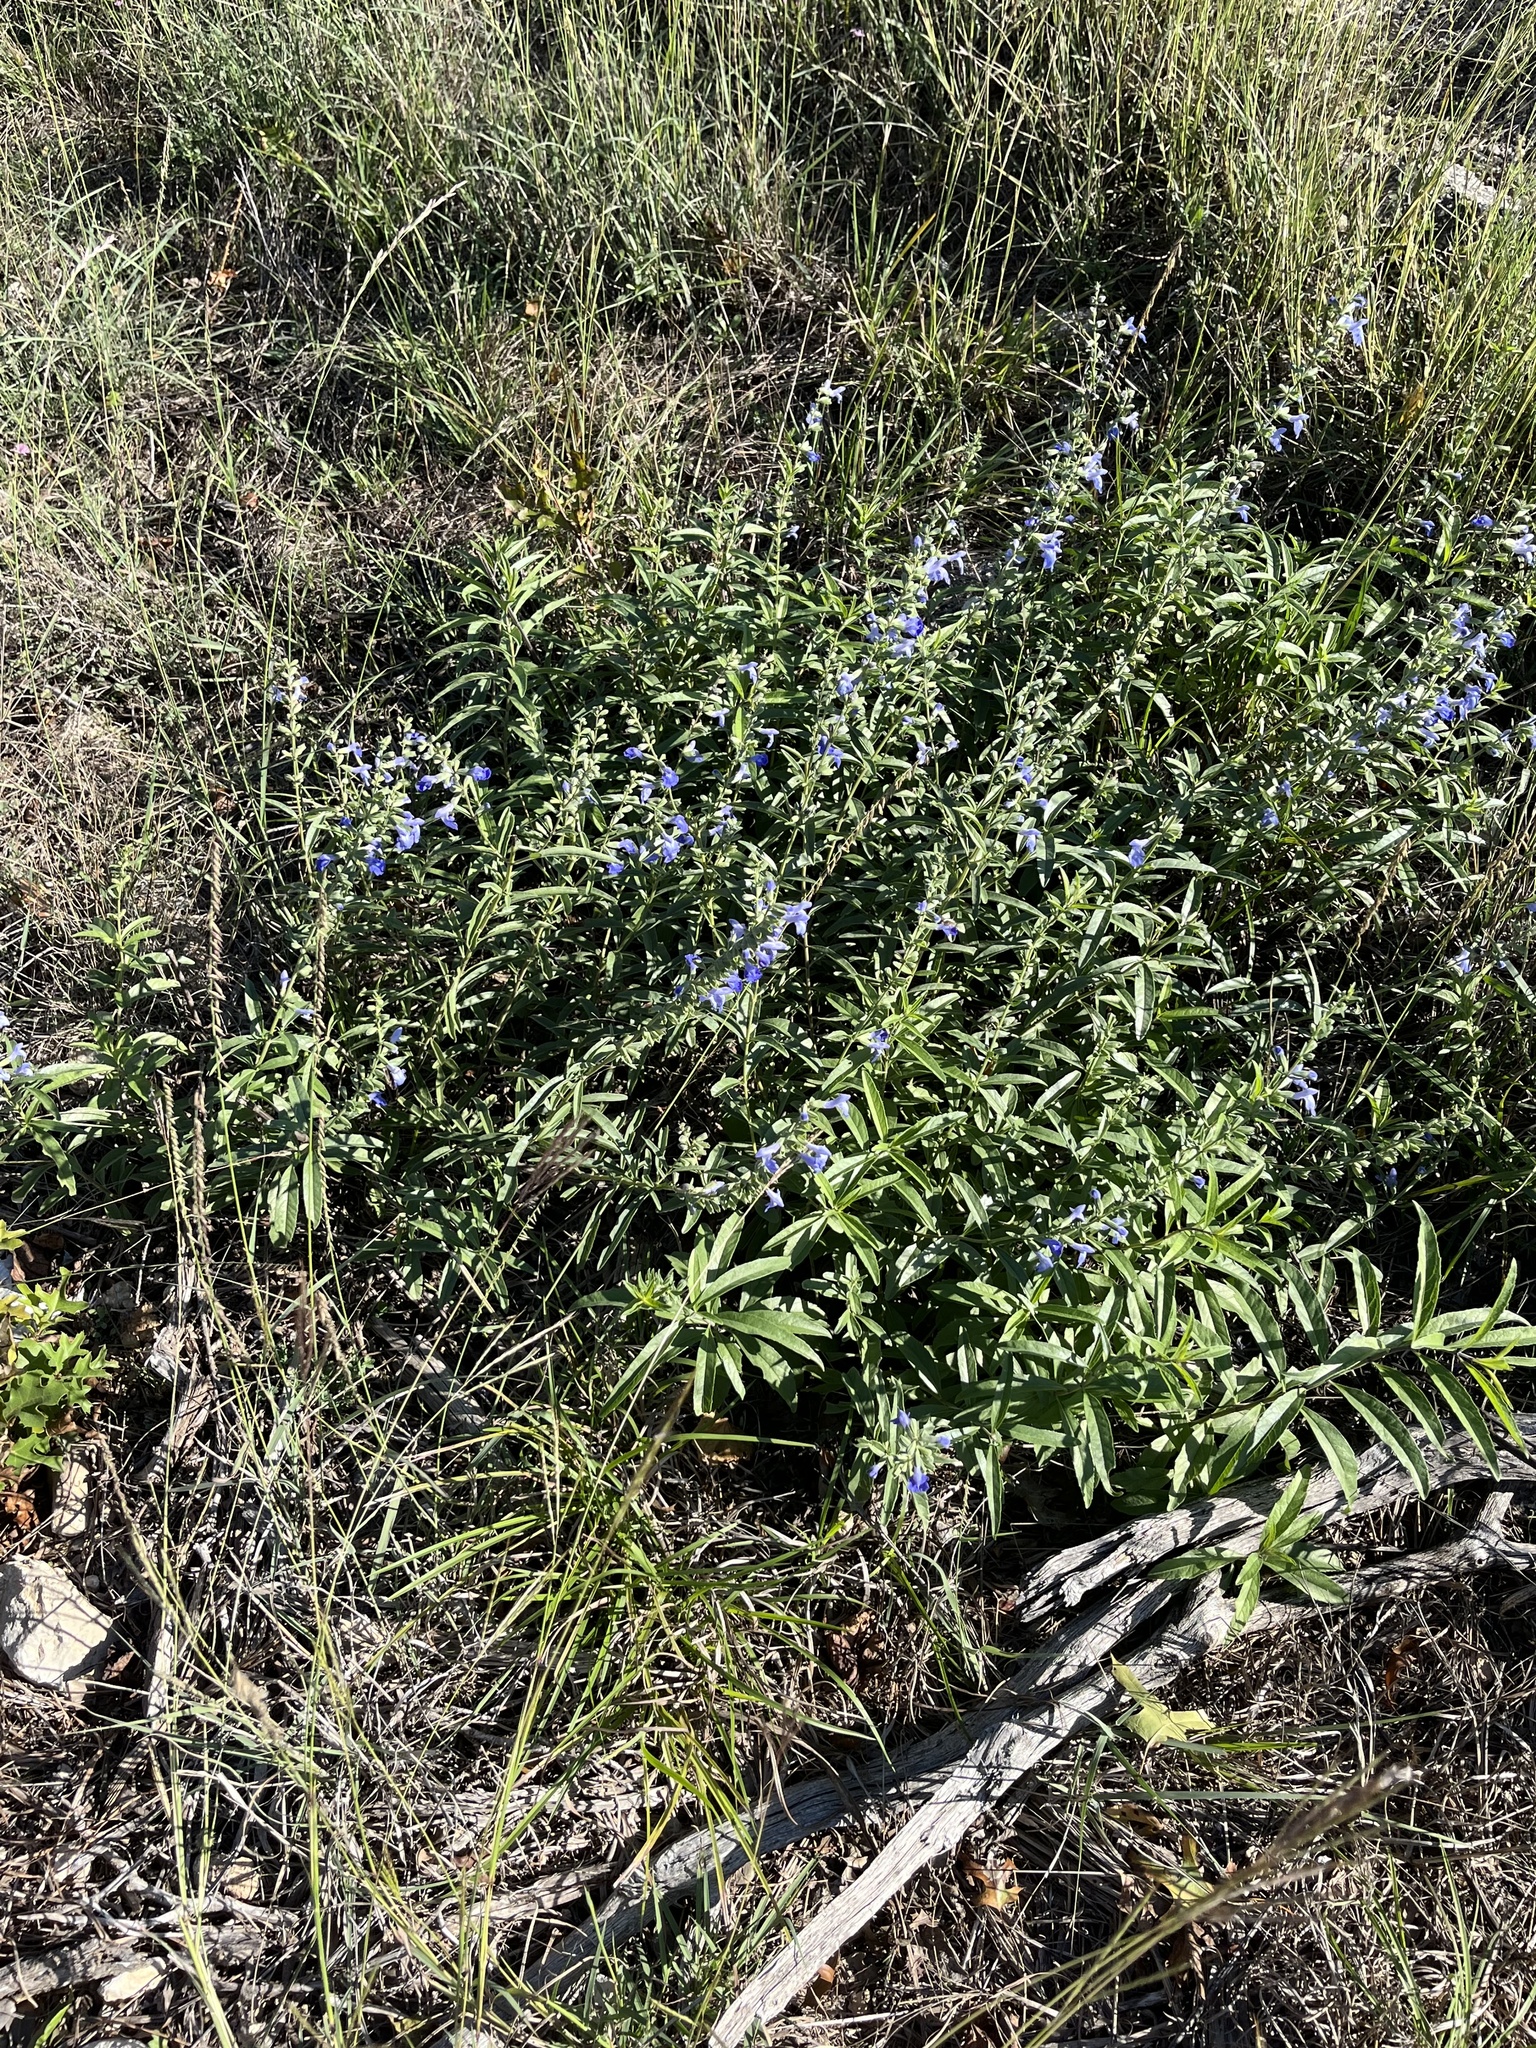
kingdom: Plantae
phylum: Tracheophyta
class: Magnoliopsida
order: Lamiales
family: Lamiaceae
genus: Salvia
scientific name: Salvia azurea
